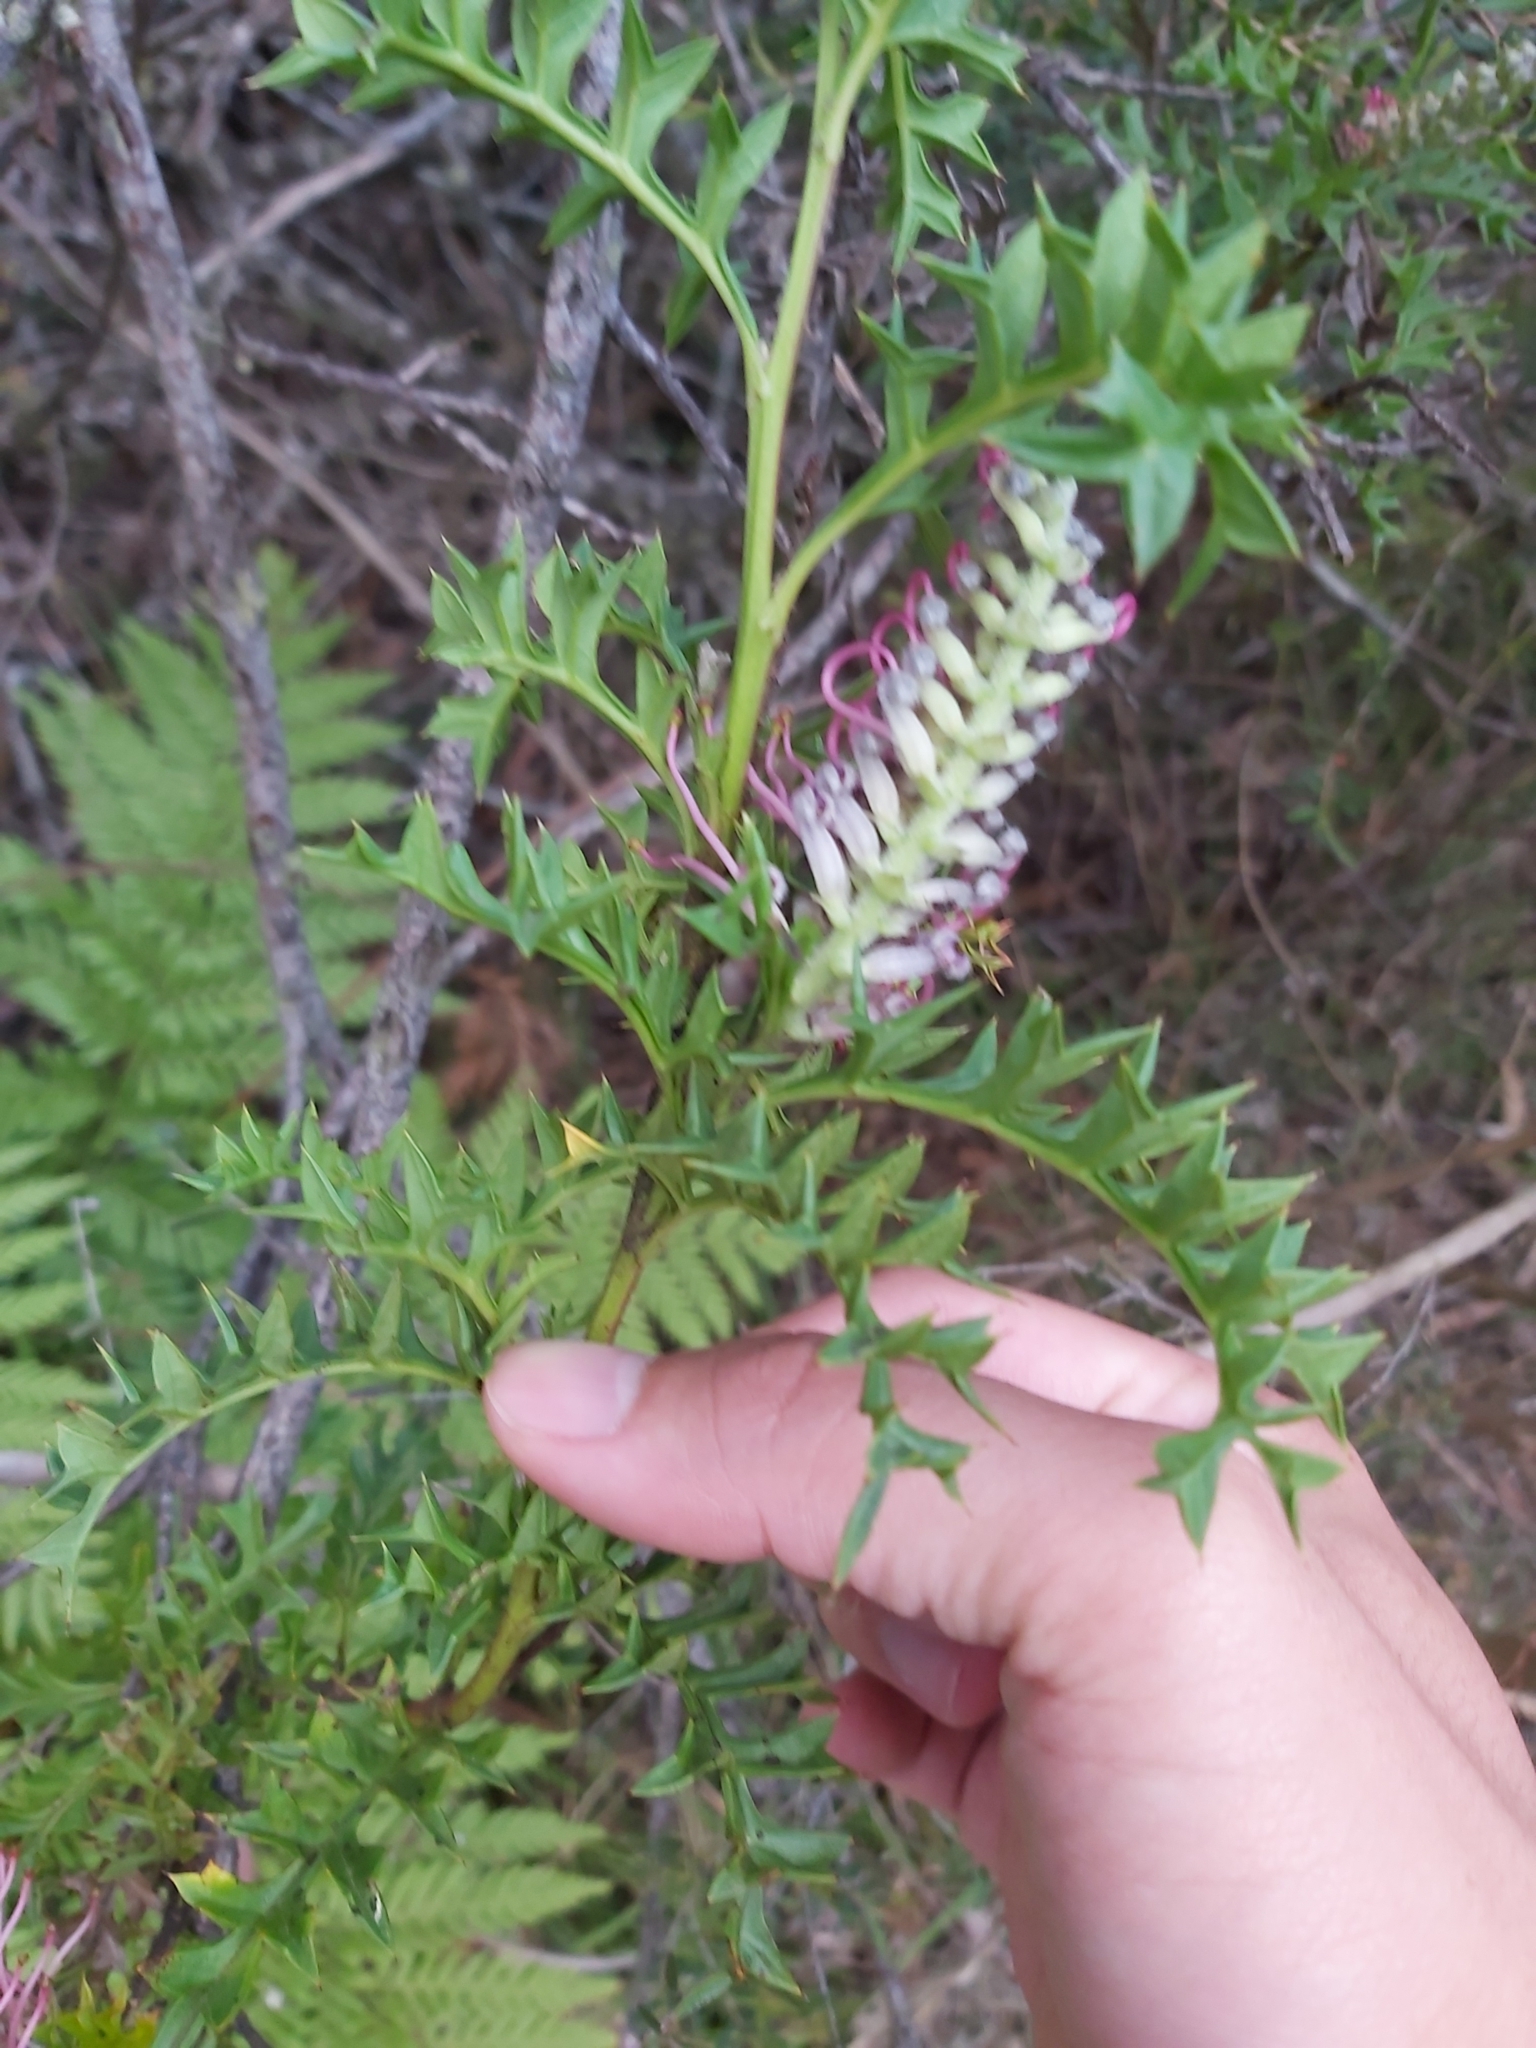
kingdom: Plantae
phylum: Tracheophyta
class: Magnoliopsida
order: Proteales
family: Proteaceae
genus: Grevillea
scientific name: Grevillea acanthifolia
